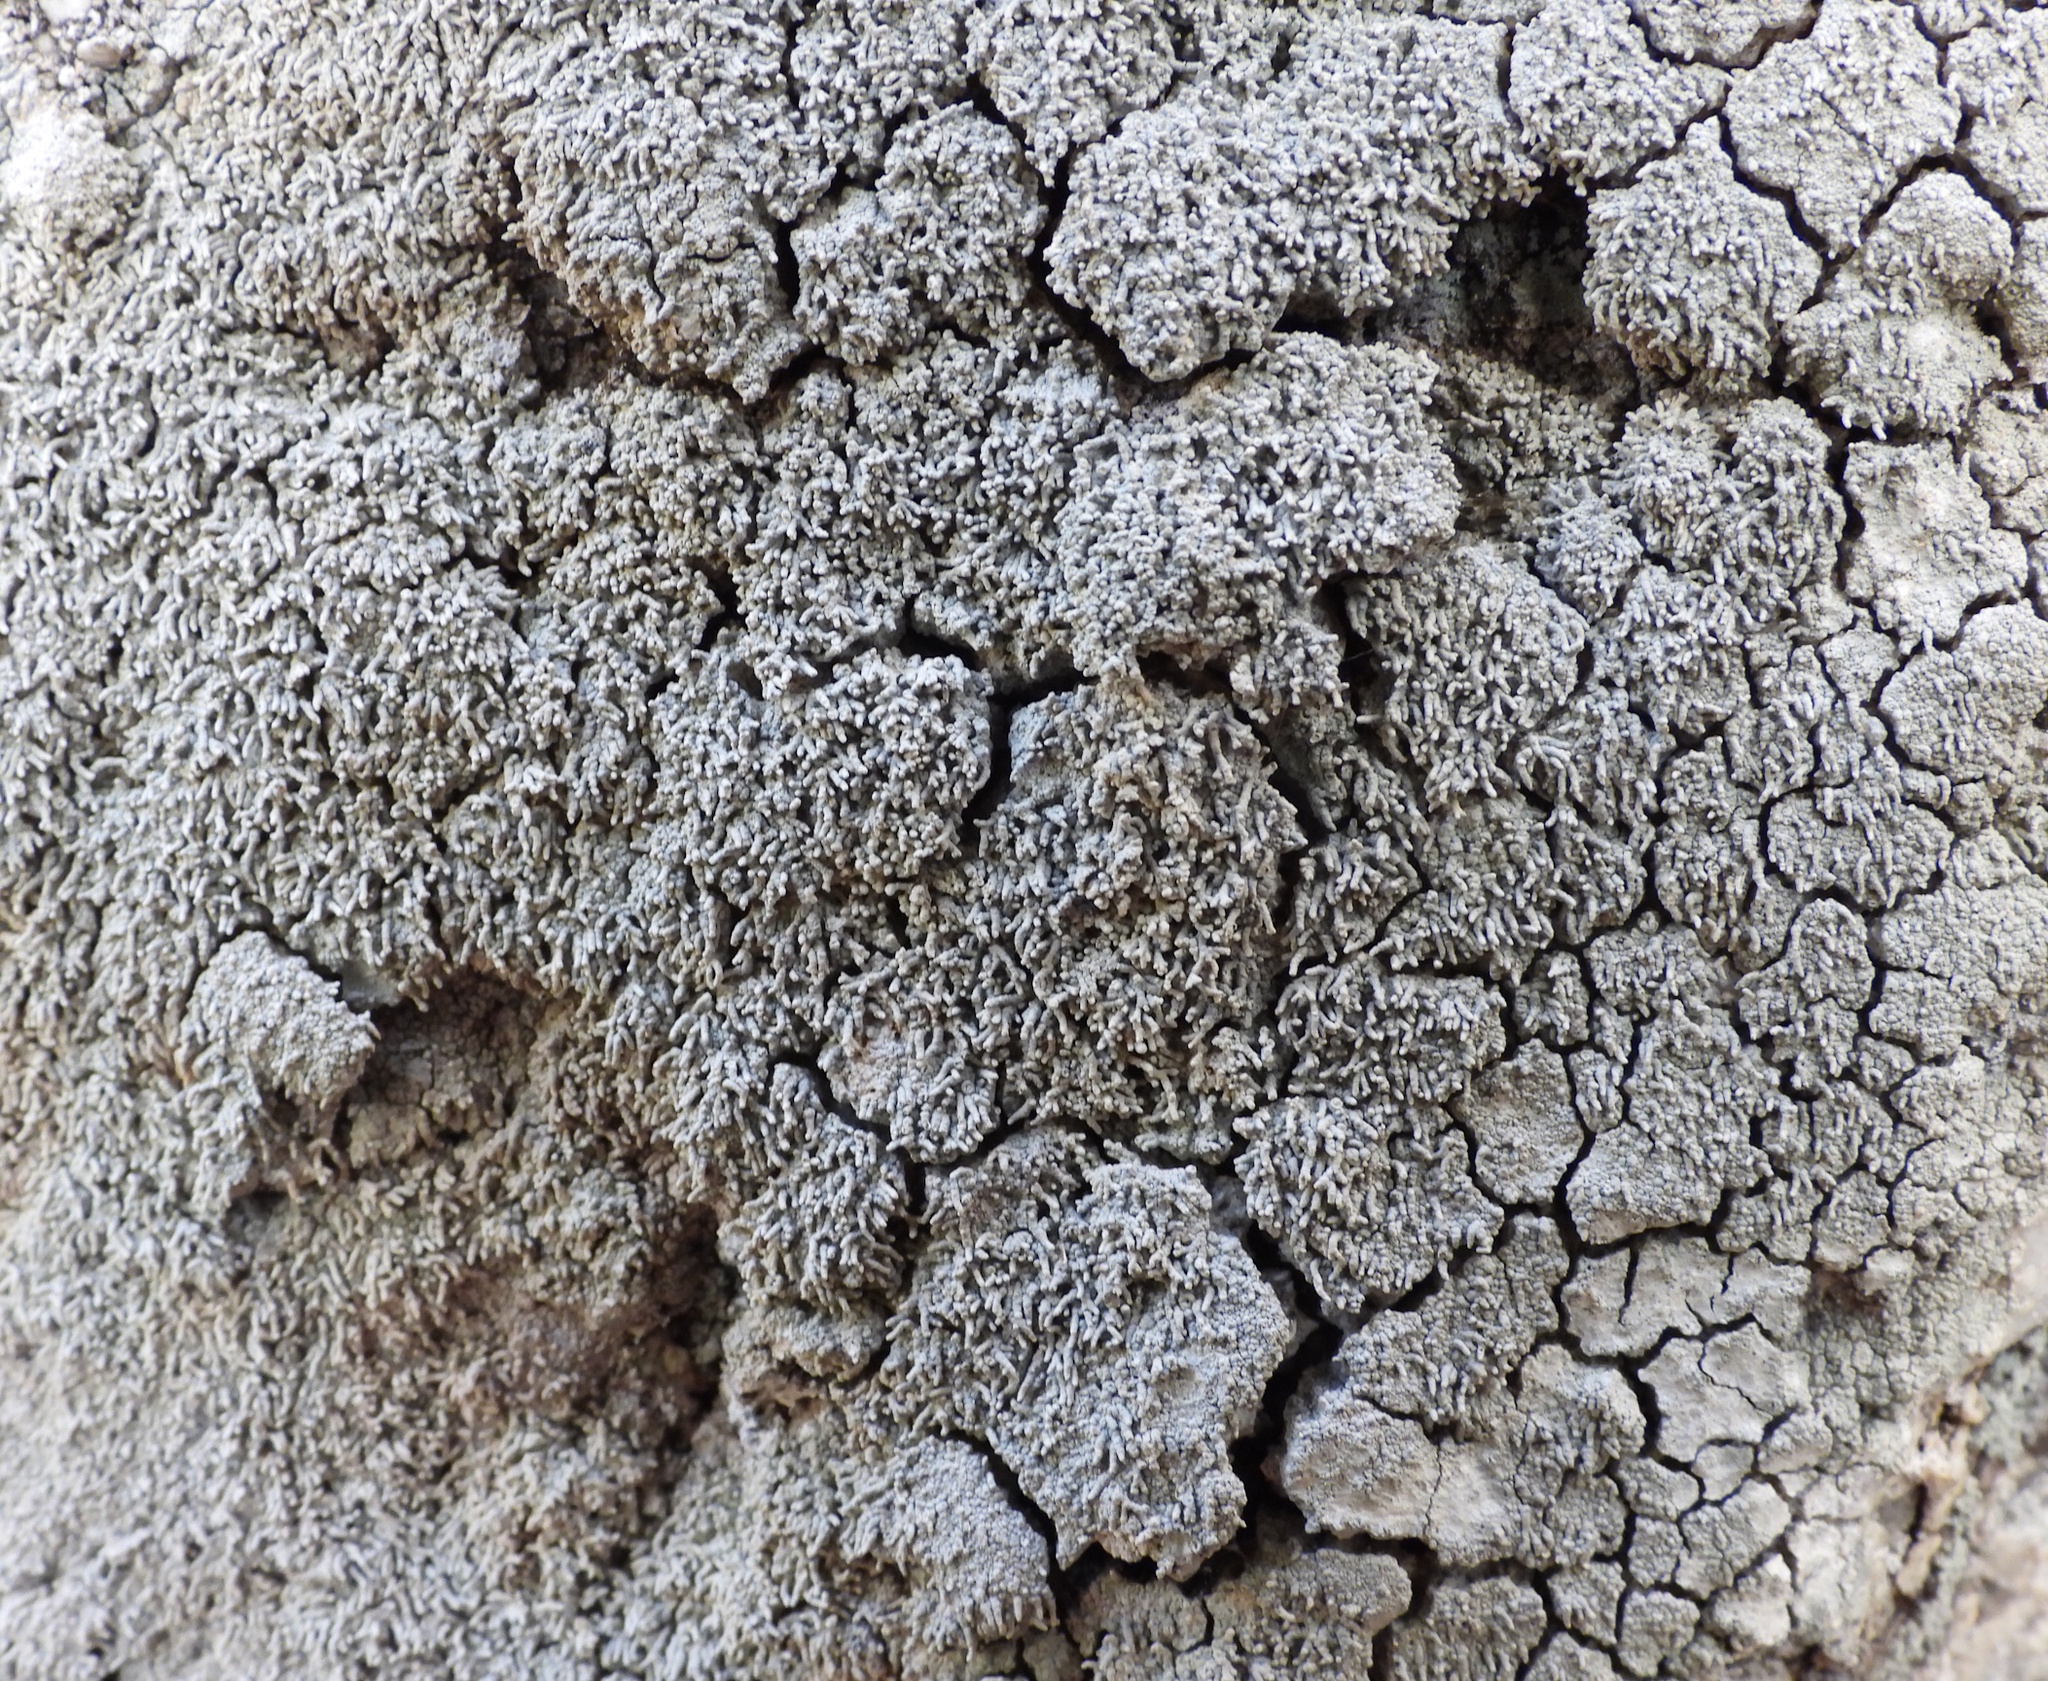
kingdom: Fungi
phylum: Ascomycota
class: Lecanoromycetes
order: Pertusariales
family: Pertusariaceae
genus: Lepra
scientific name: Lepra corallina
